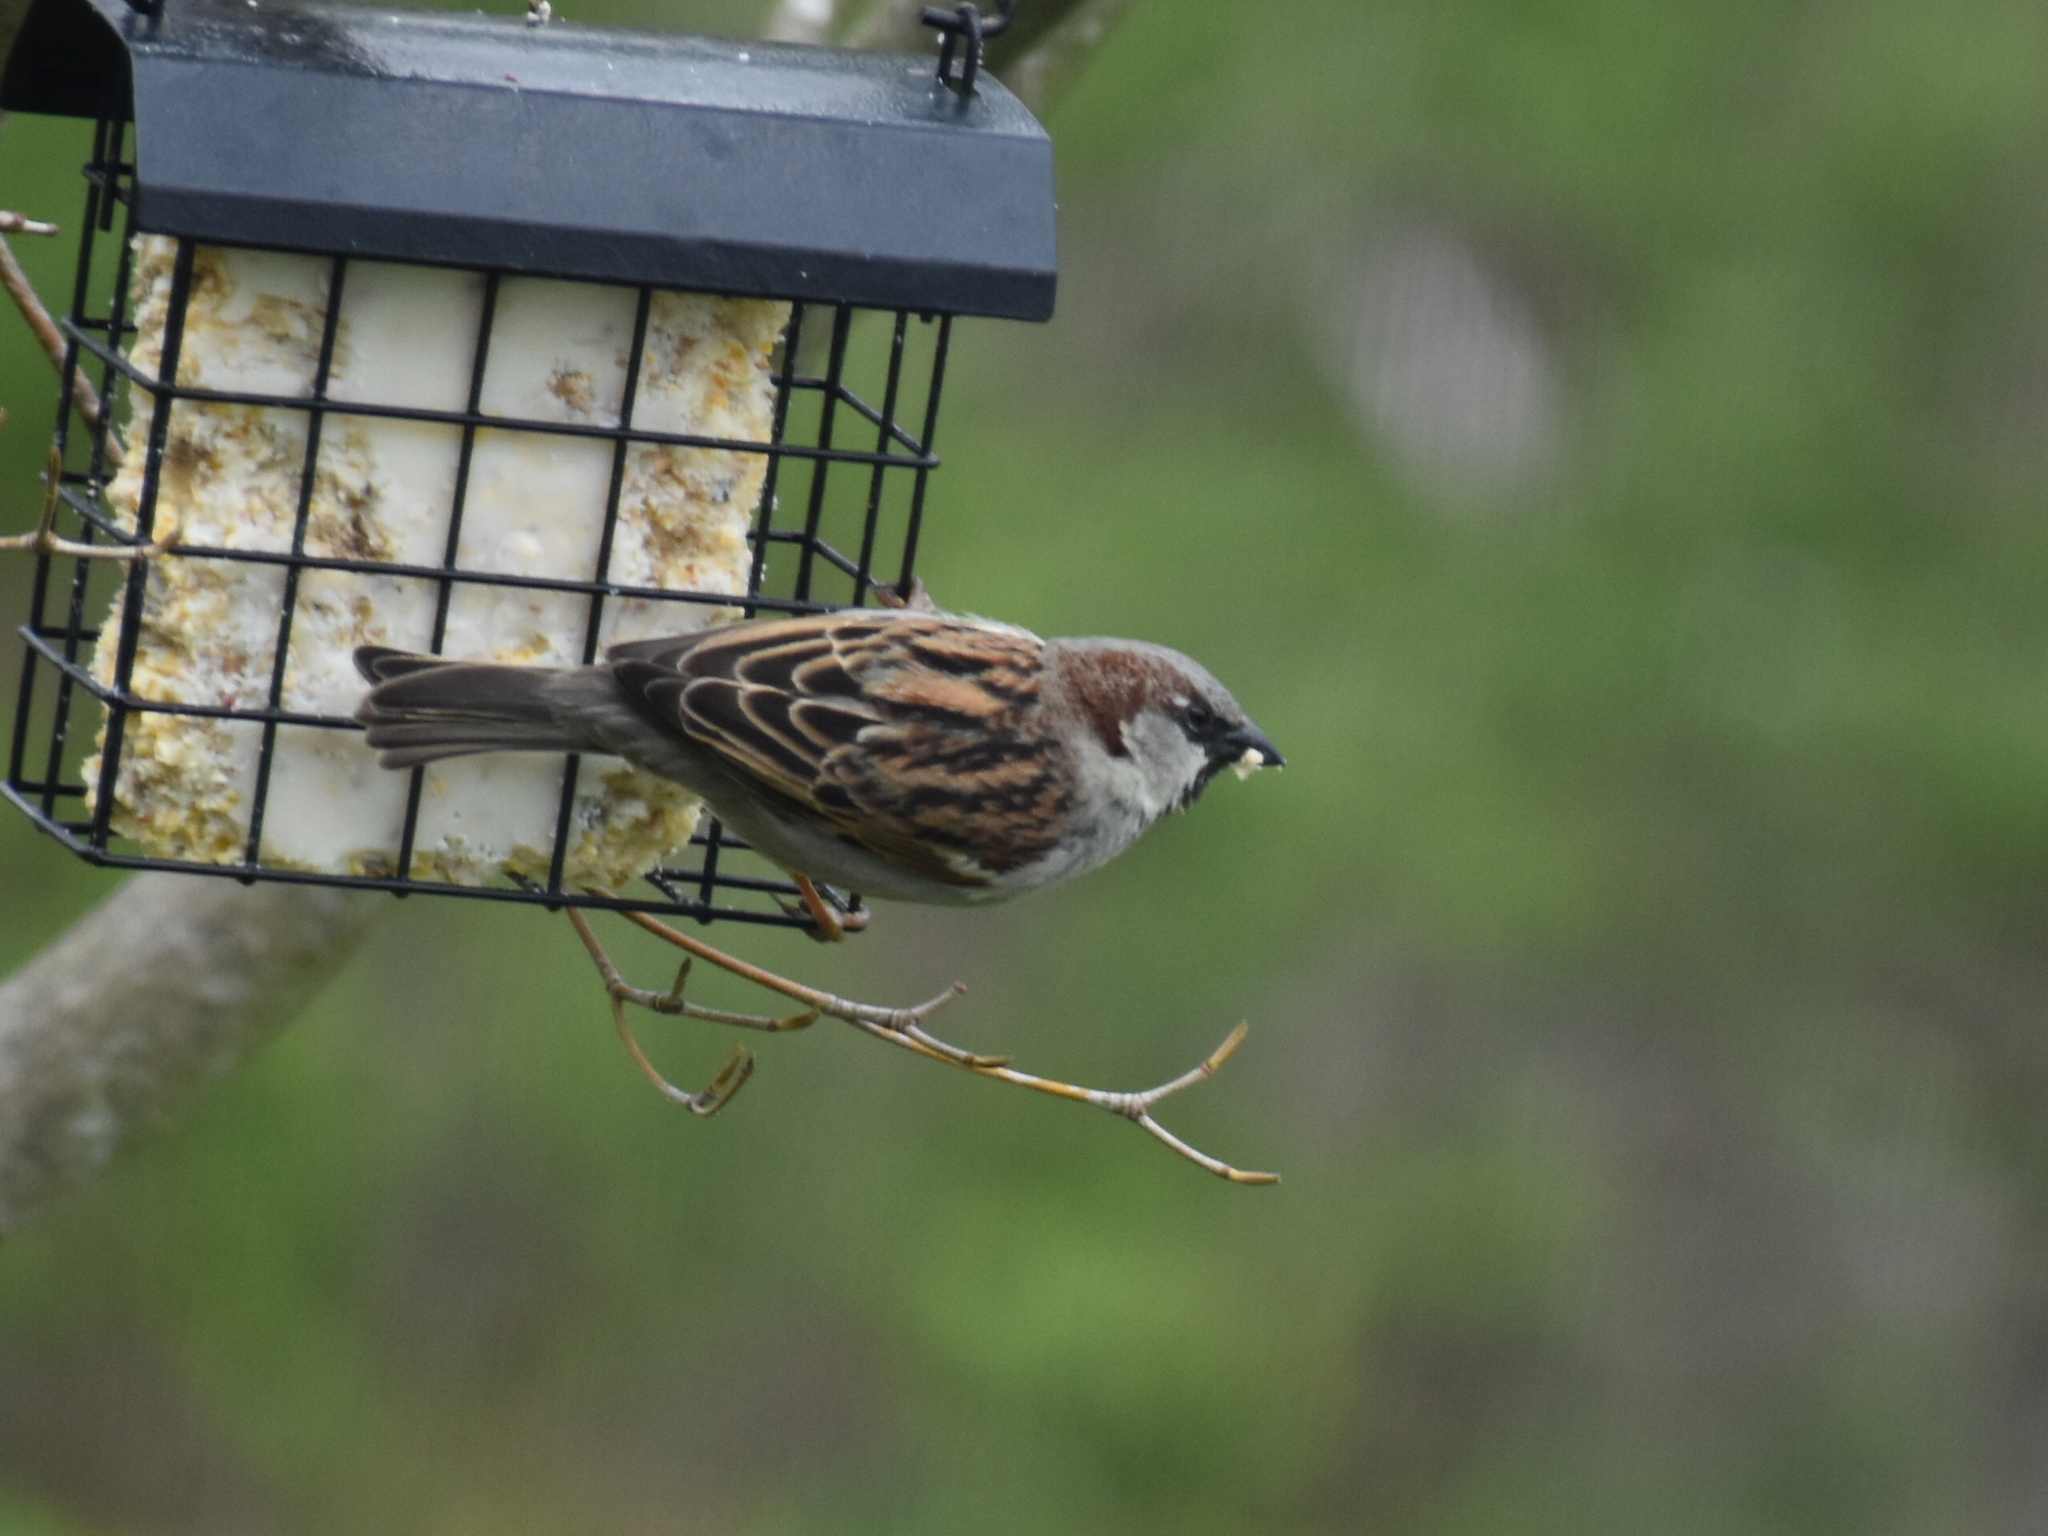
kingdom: Animalia
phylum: Chordata
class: Aves
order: Passeriformes
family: Passeridae
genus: Passer
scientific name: Passer domesticus
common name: House sparrow
